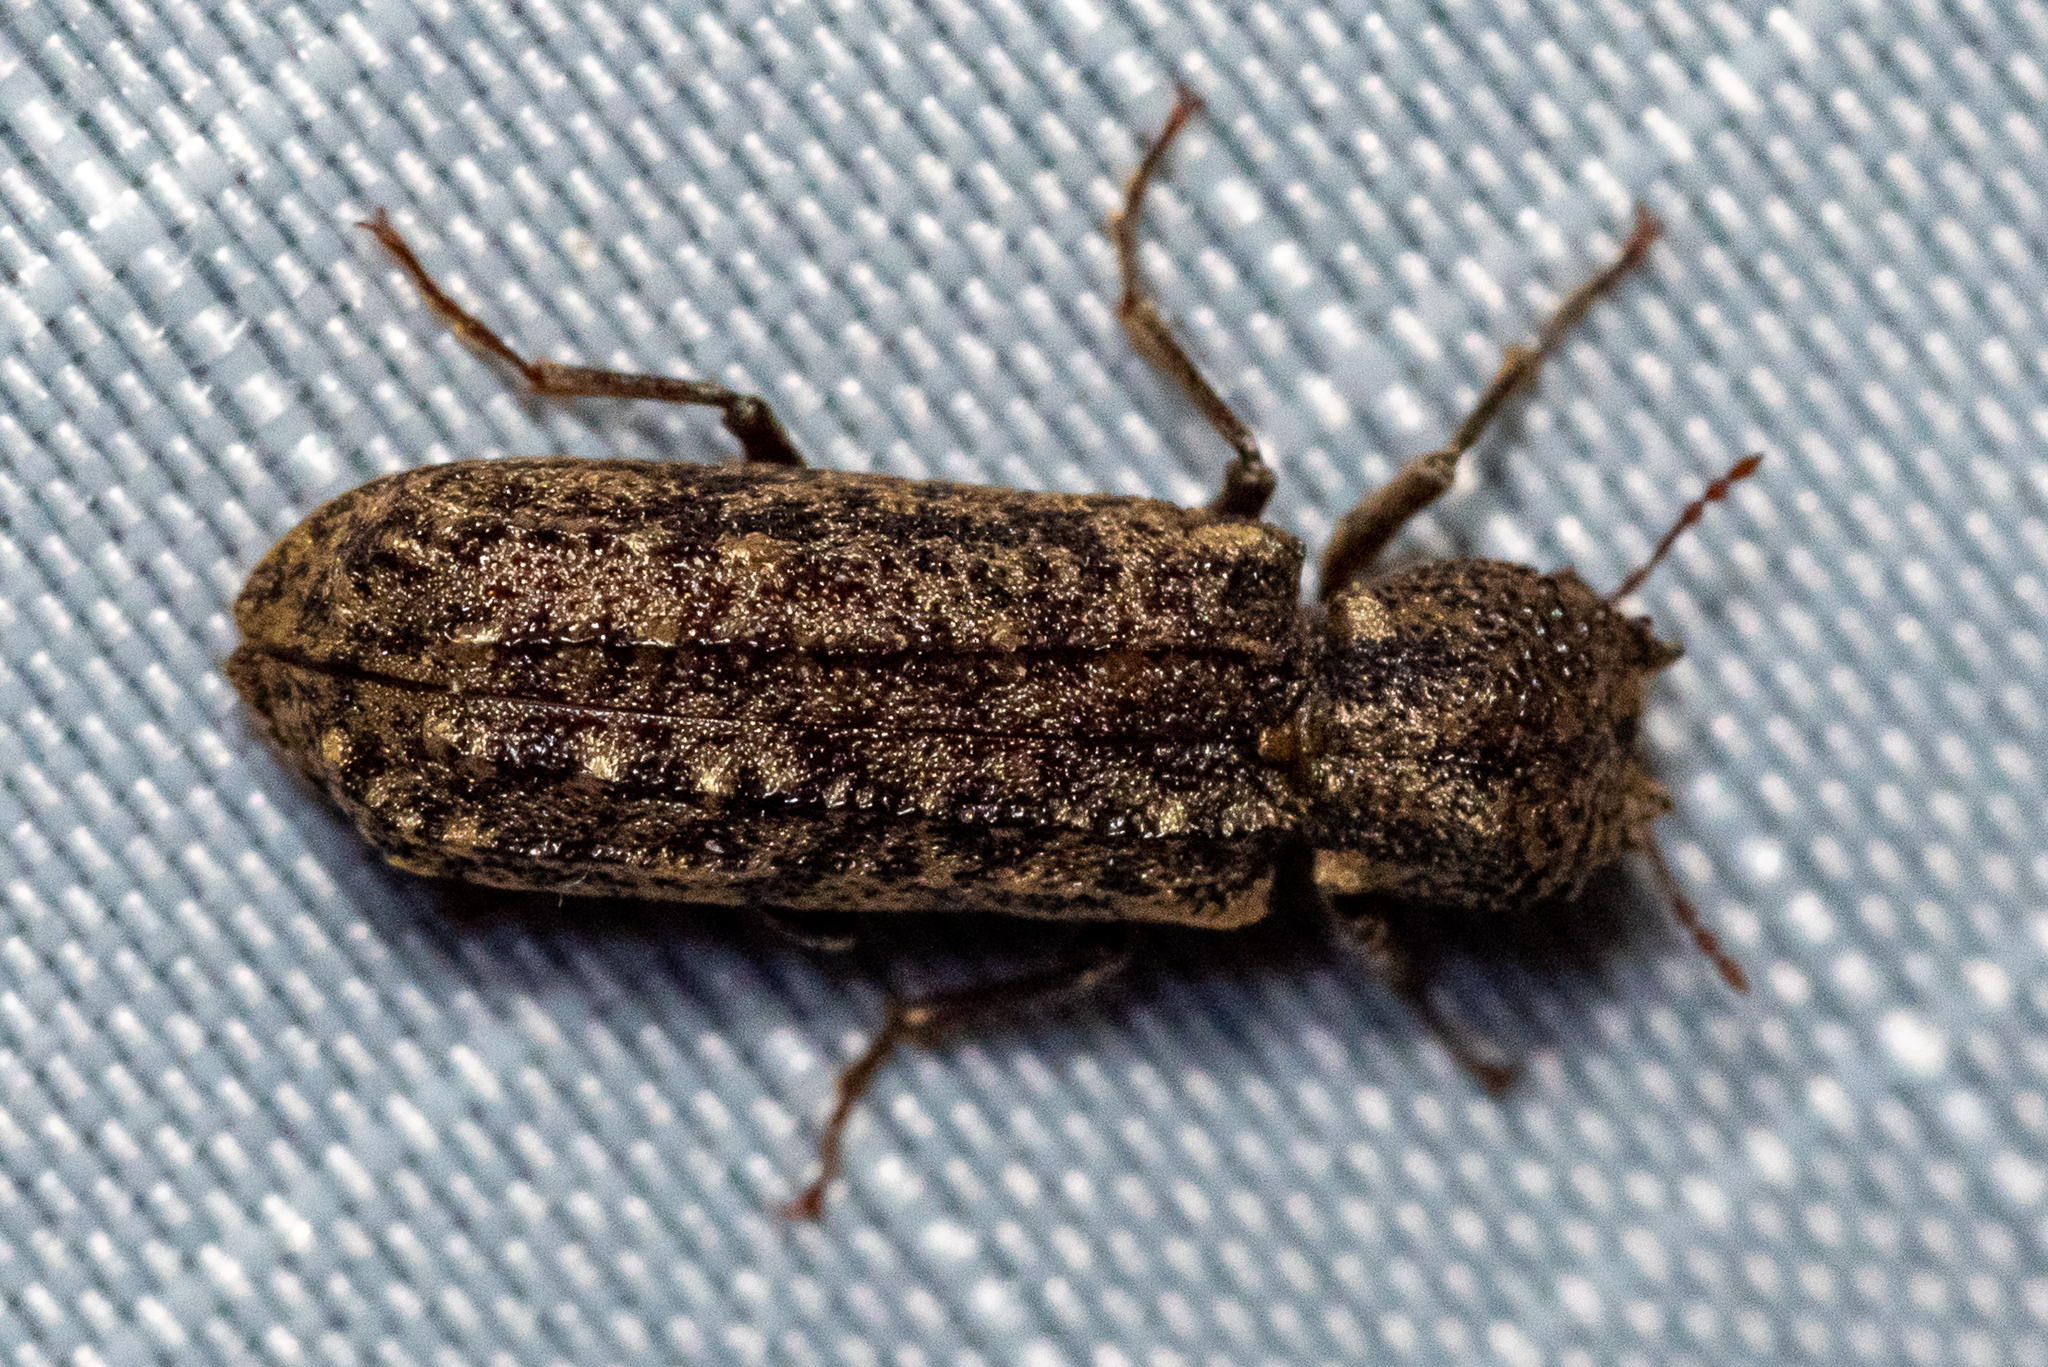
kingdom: Animalia
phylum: Arthropoda
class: Insecta
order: Coleoptera
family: Bostrichidae
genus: Lichenophanes
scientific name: Lichenophanes bicornis
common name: Two-horned powder-post beetle
